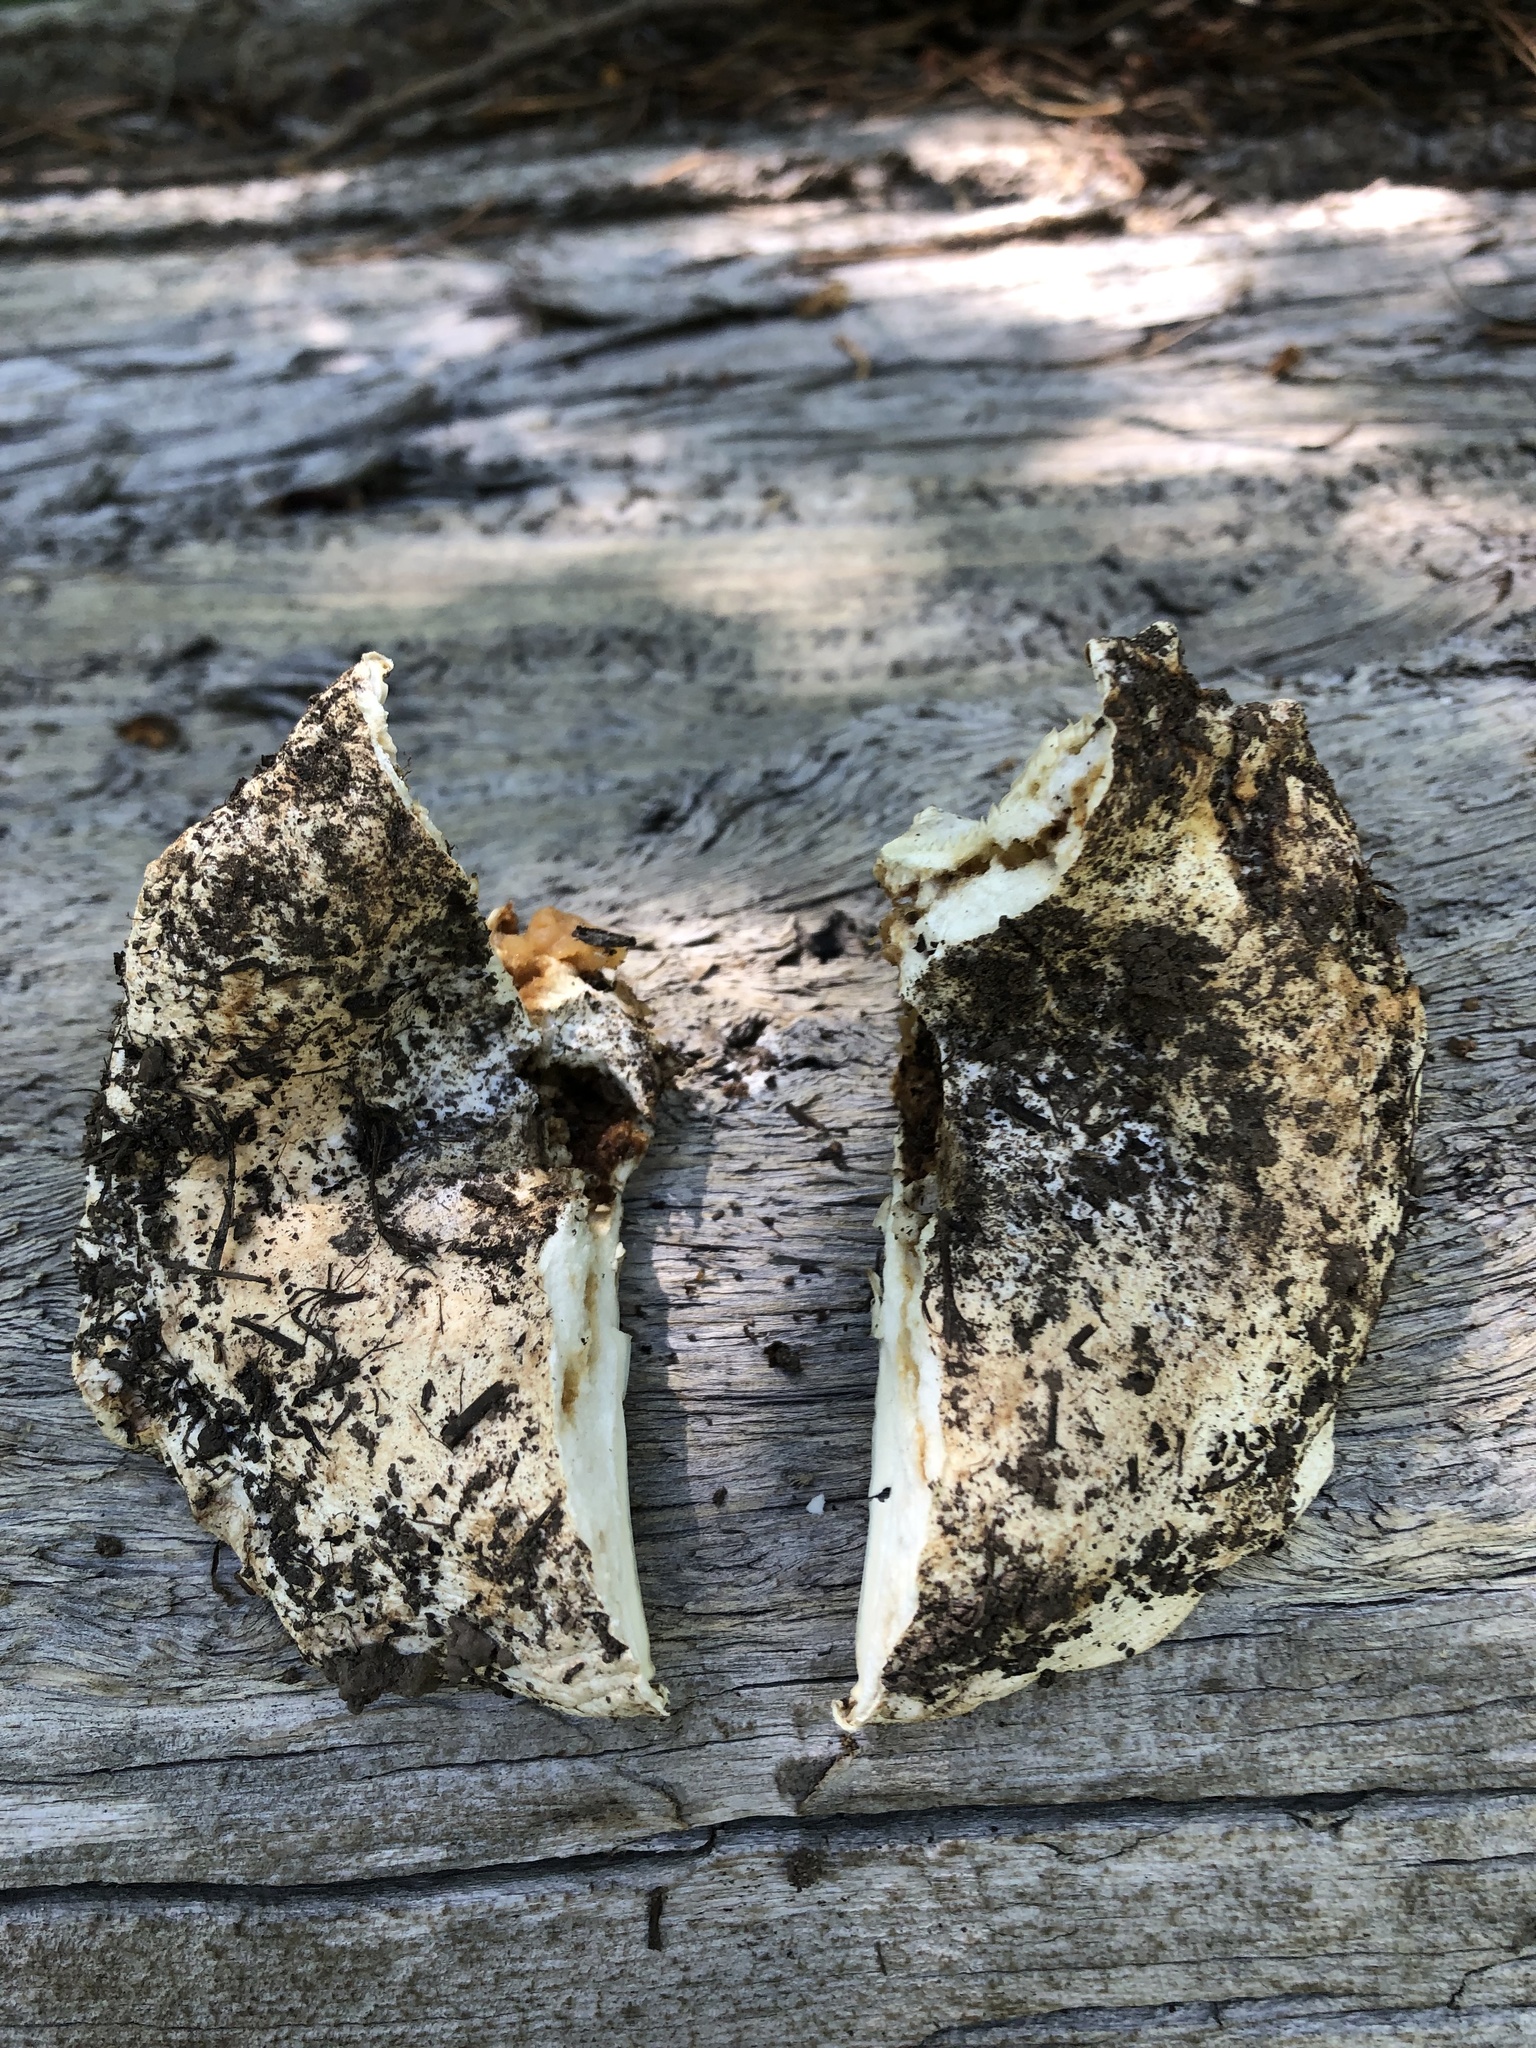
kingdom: Fungi
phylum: Basidiomycota
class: Agaricomycetes
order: Russulales
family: Russulaceae
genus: Russula
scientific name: Russula brevipes
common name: Short-stemmed russula
